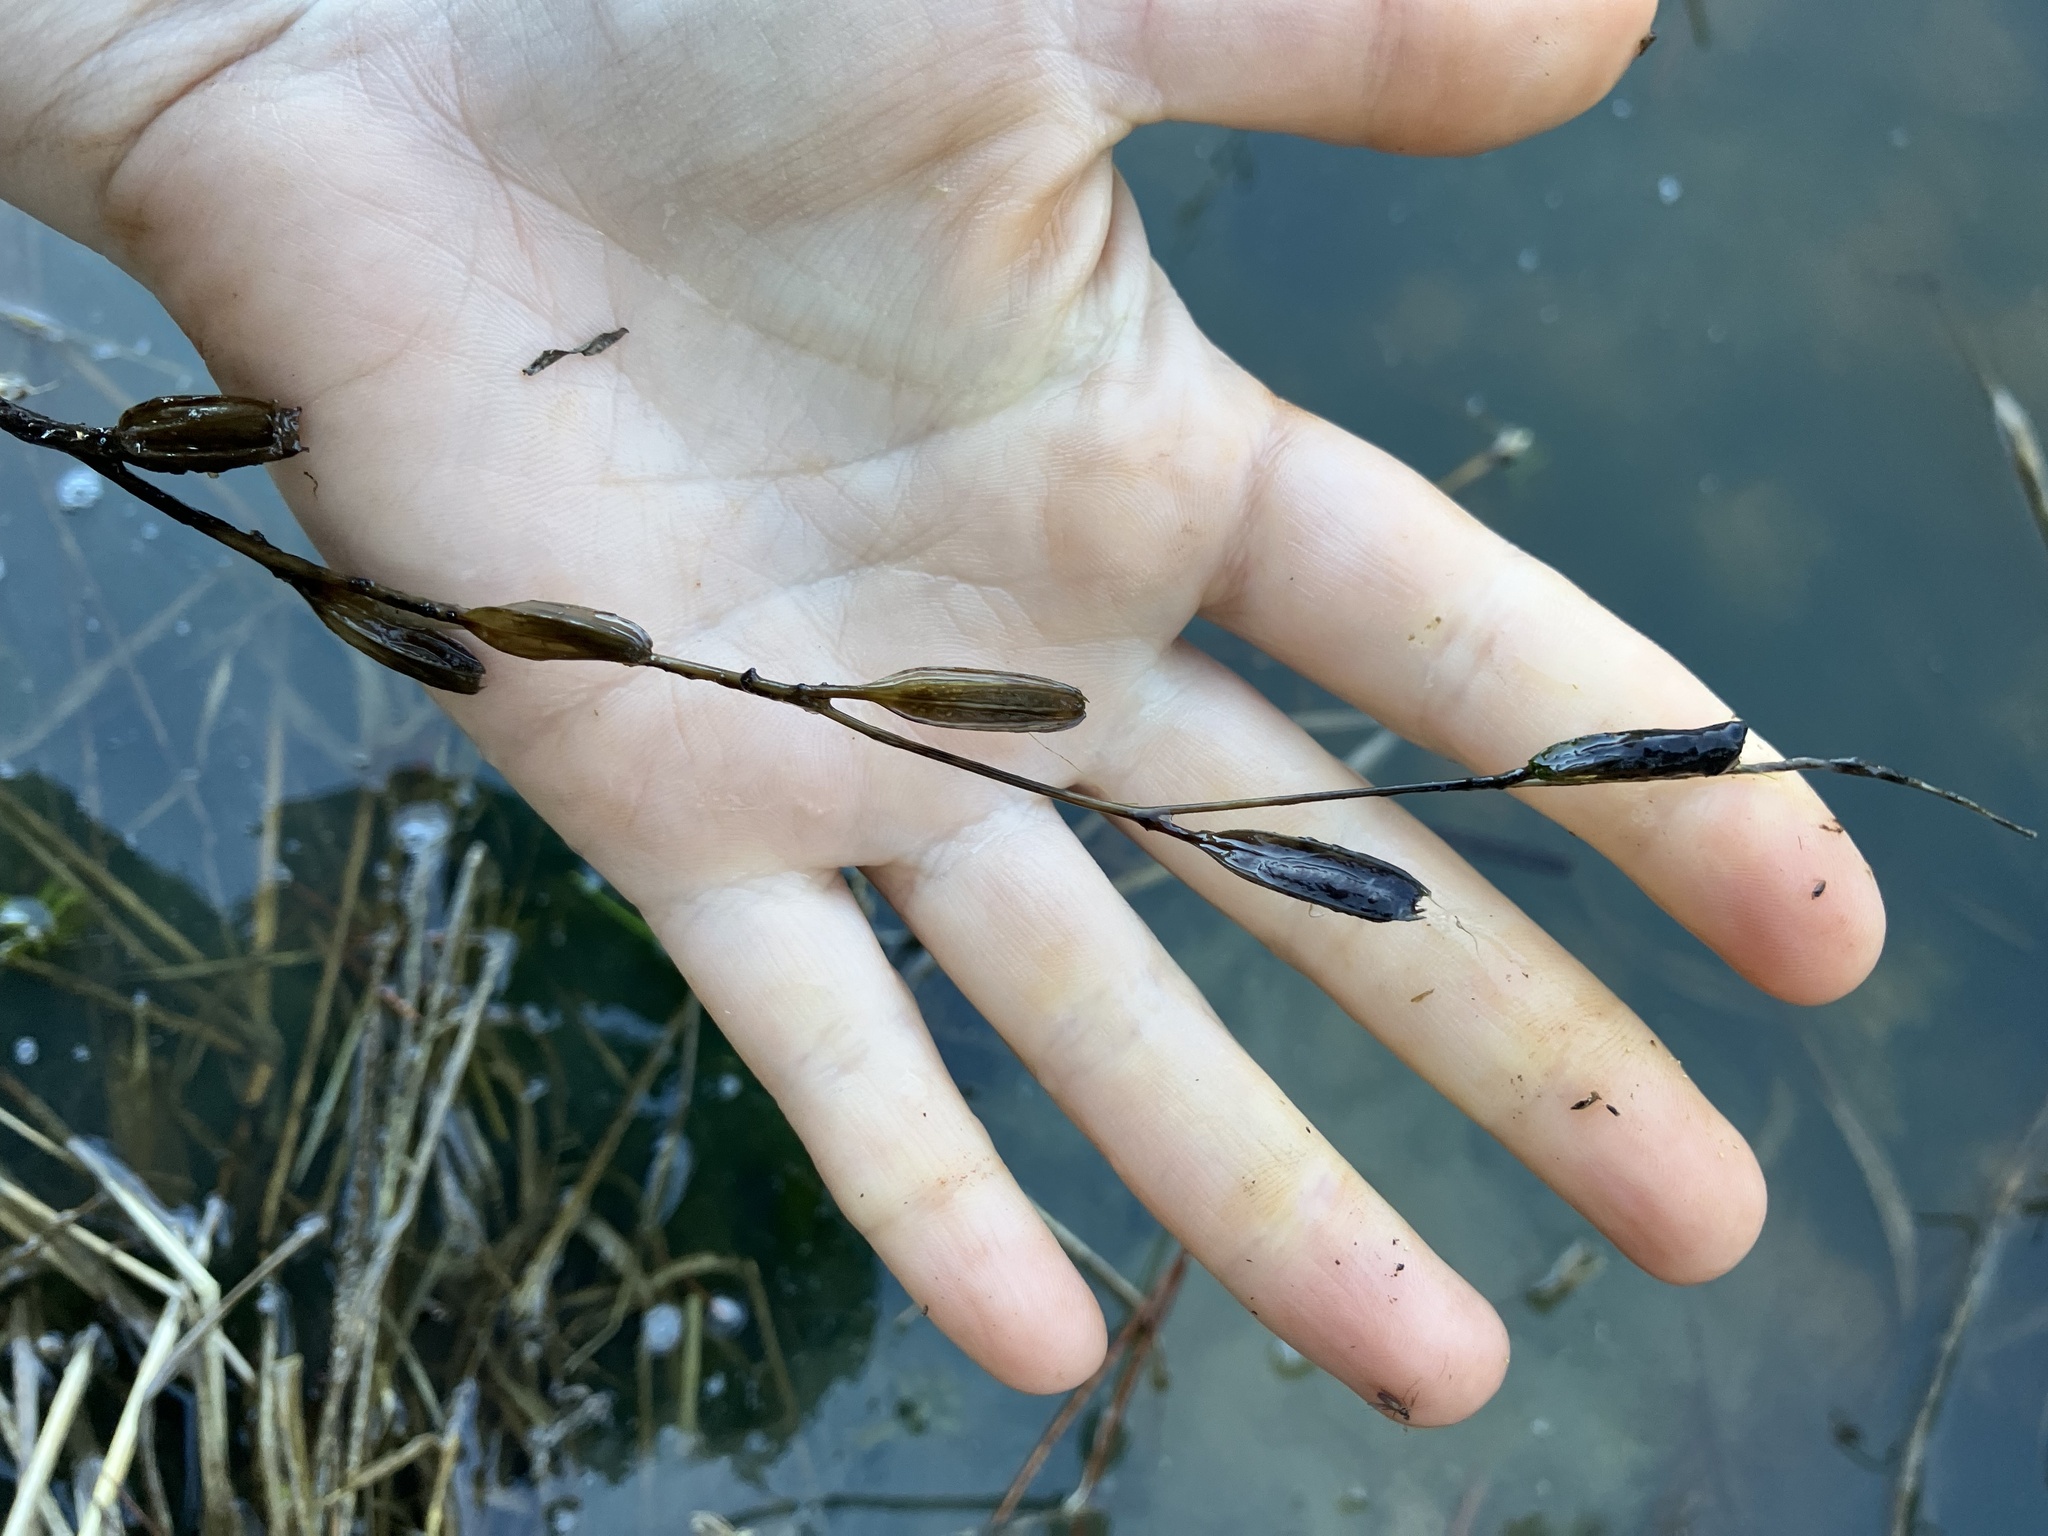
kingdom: Plantae
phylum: Tracheophyta
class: Magnoliopsida
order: Myrtales
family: Onagraceae
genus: Ludwigia
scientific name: Ludwigia decurrens
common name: Winged water-primrose
